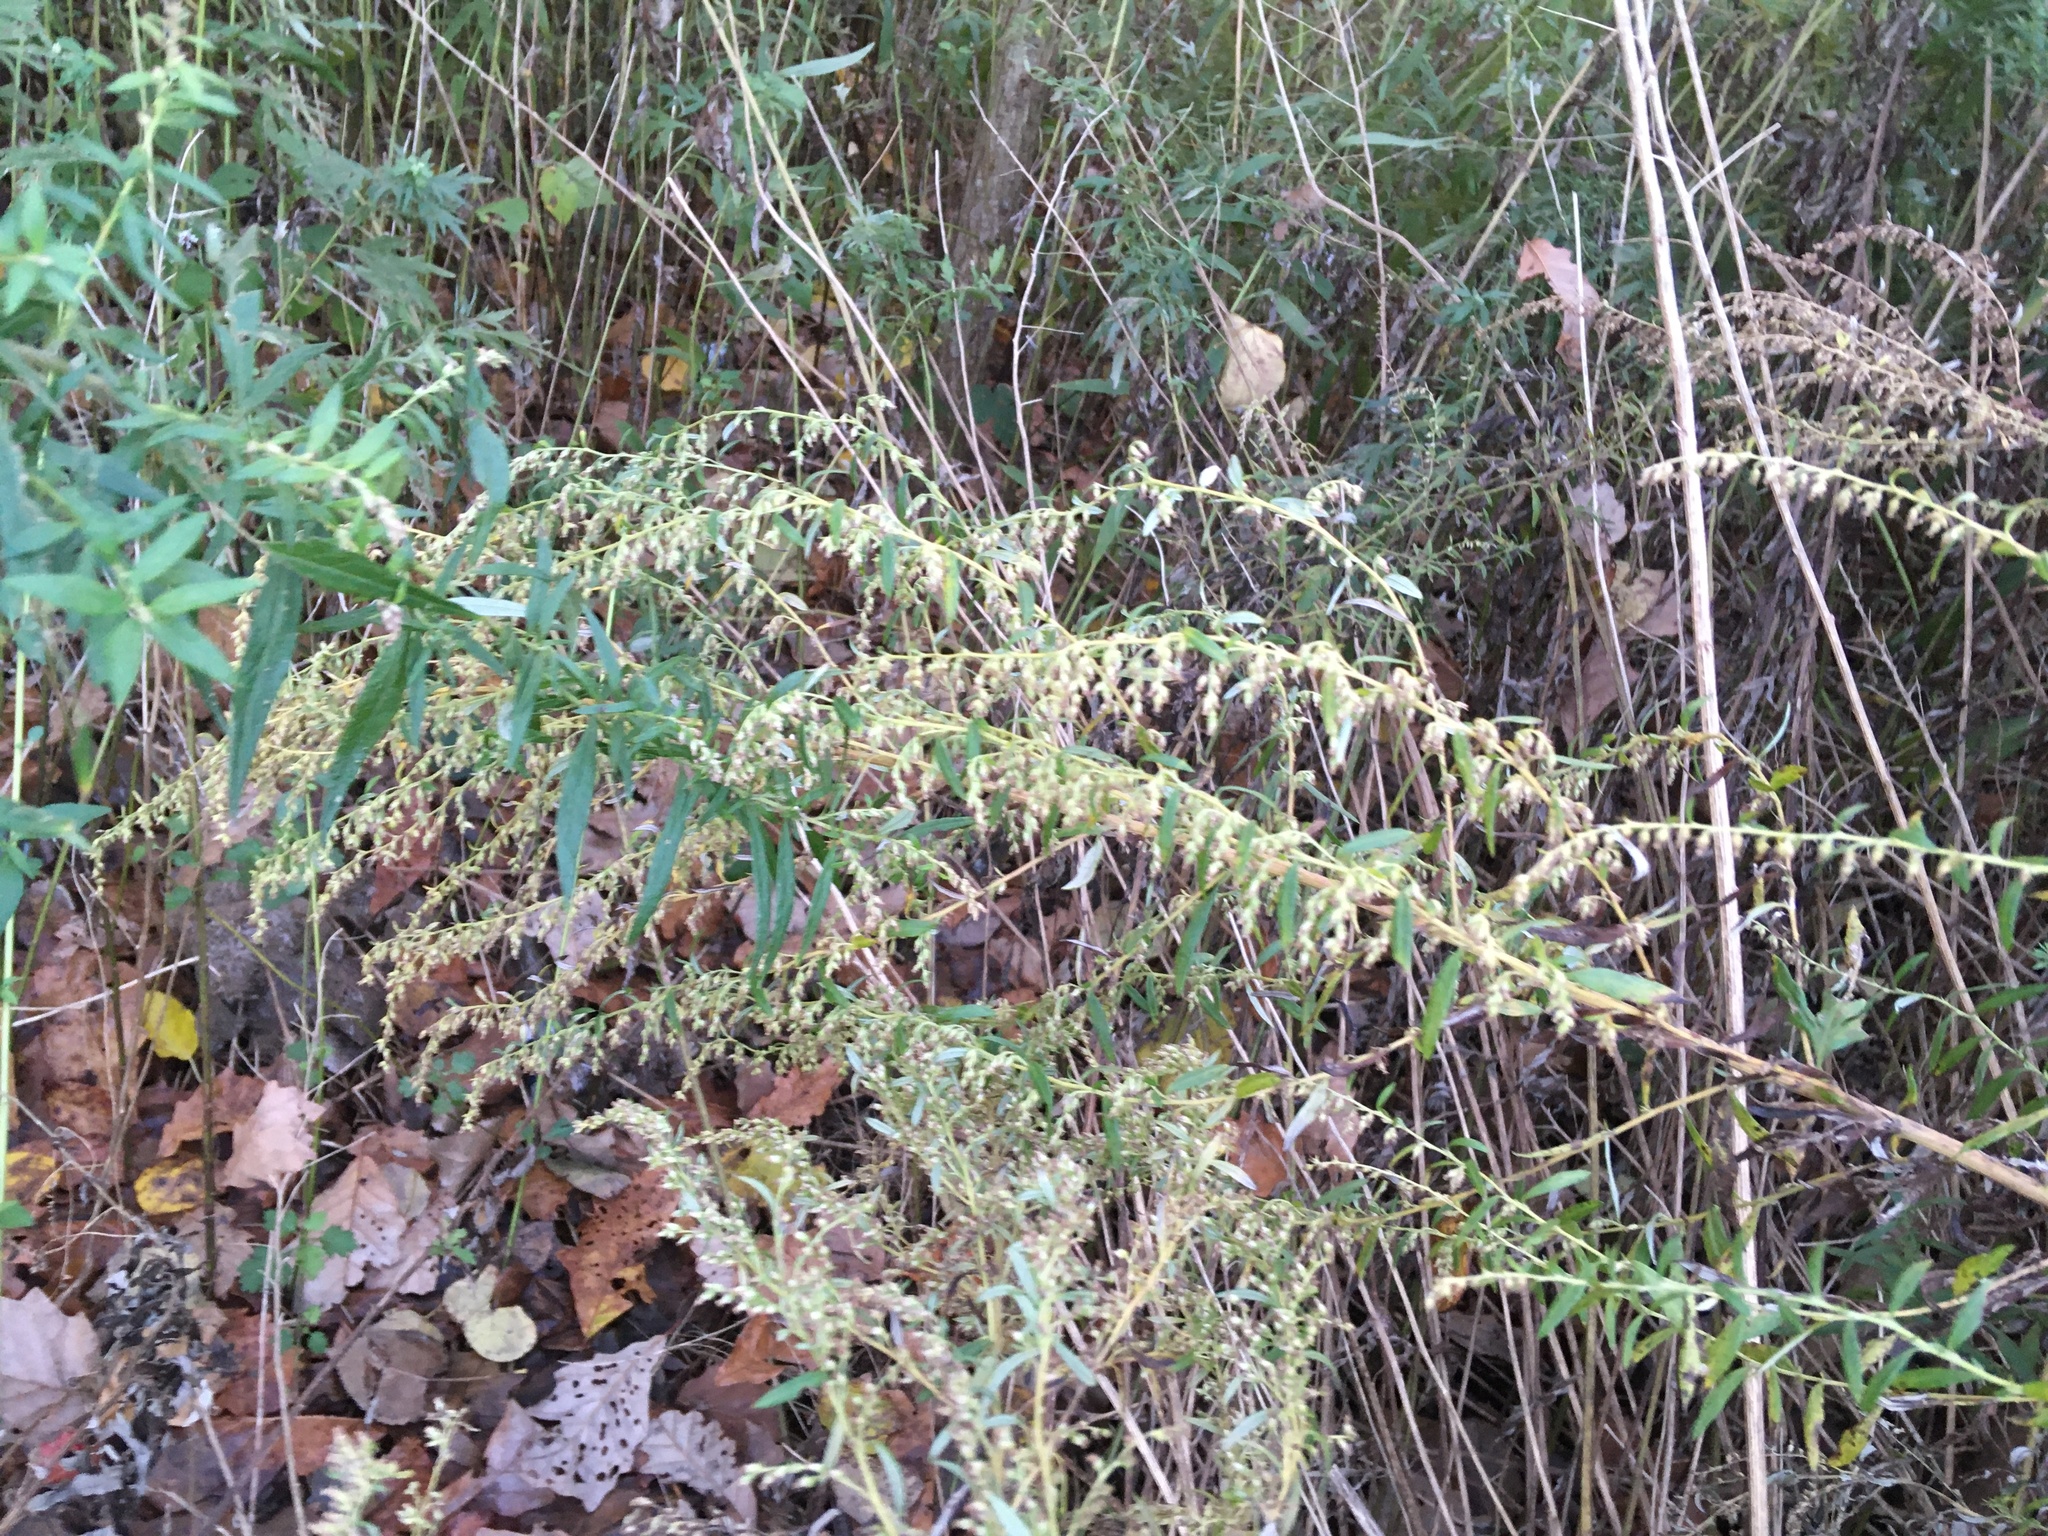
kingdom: Plantae
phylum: Tracheophyta
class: Magnoliopsida
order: Asterales
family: Asteraceae
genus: Artemisia
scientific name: Artemisia vulgaris
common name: Mugwort
